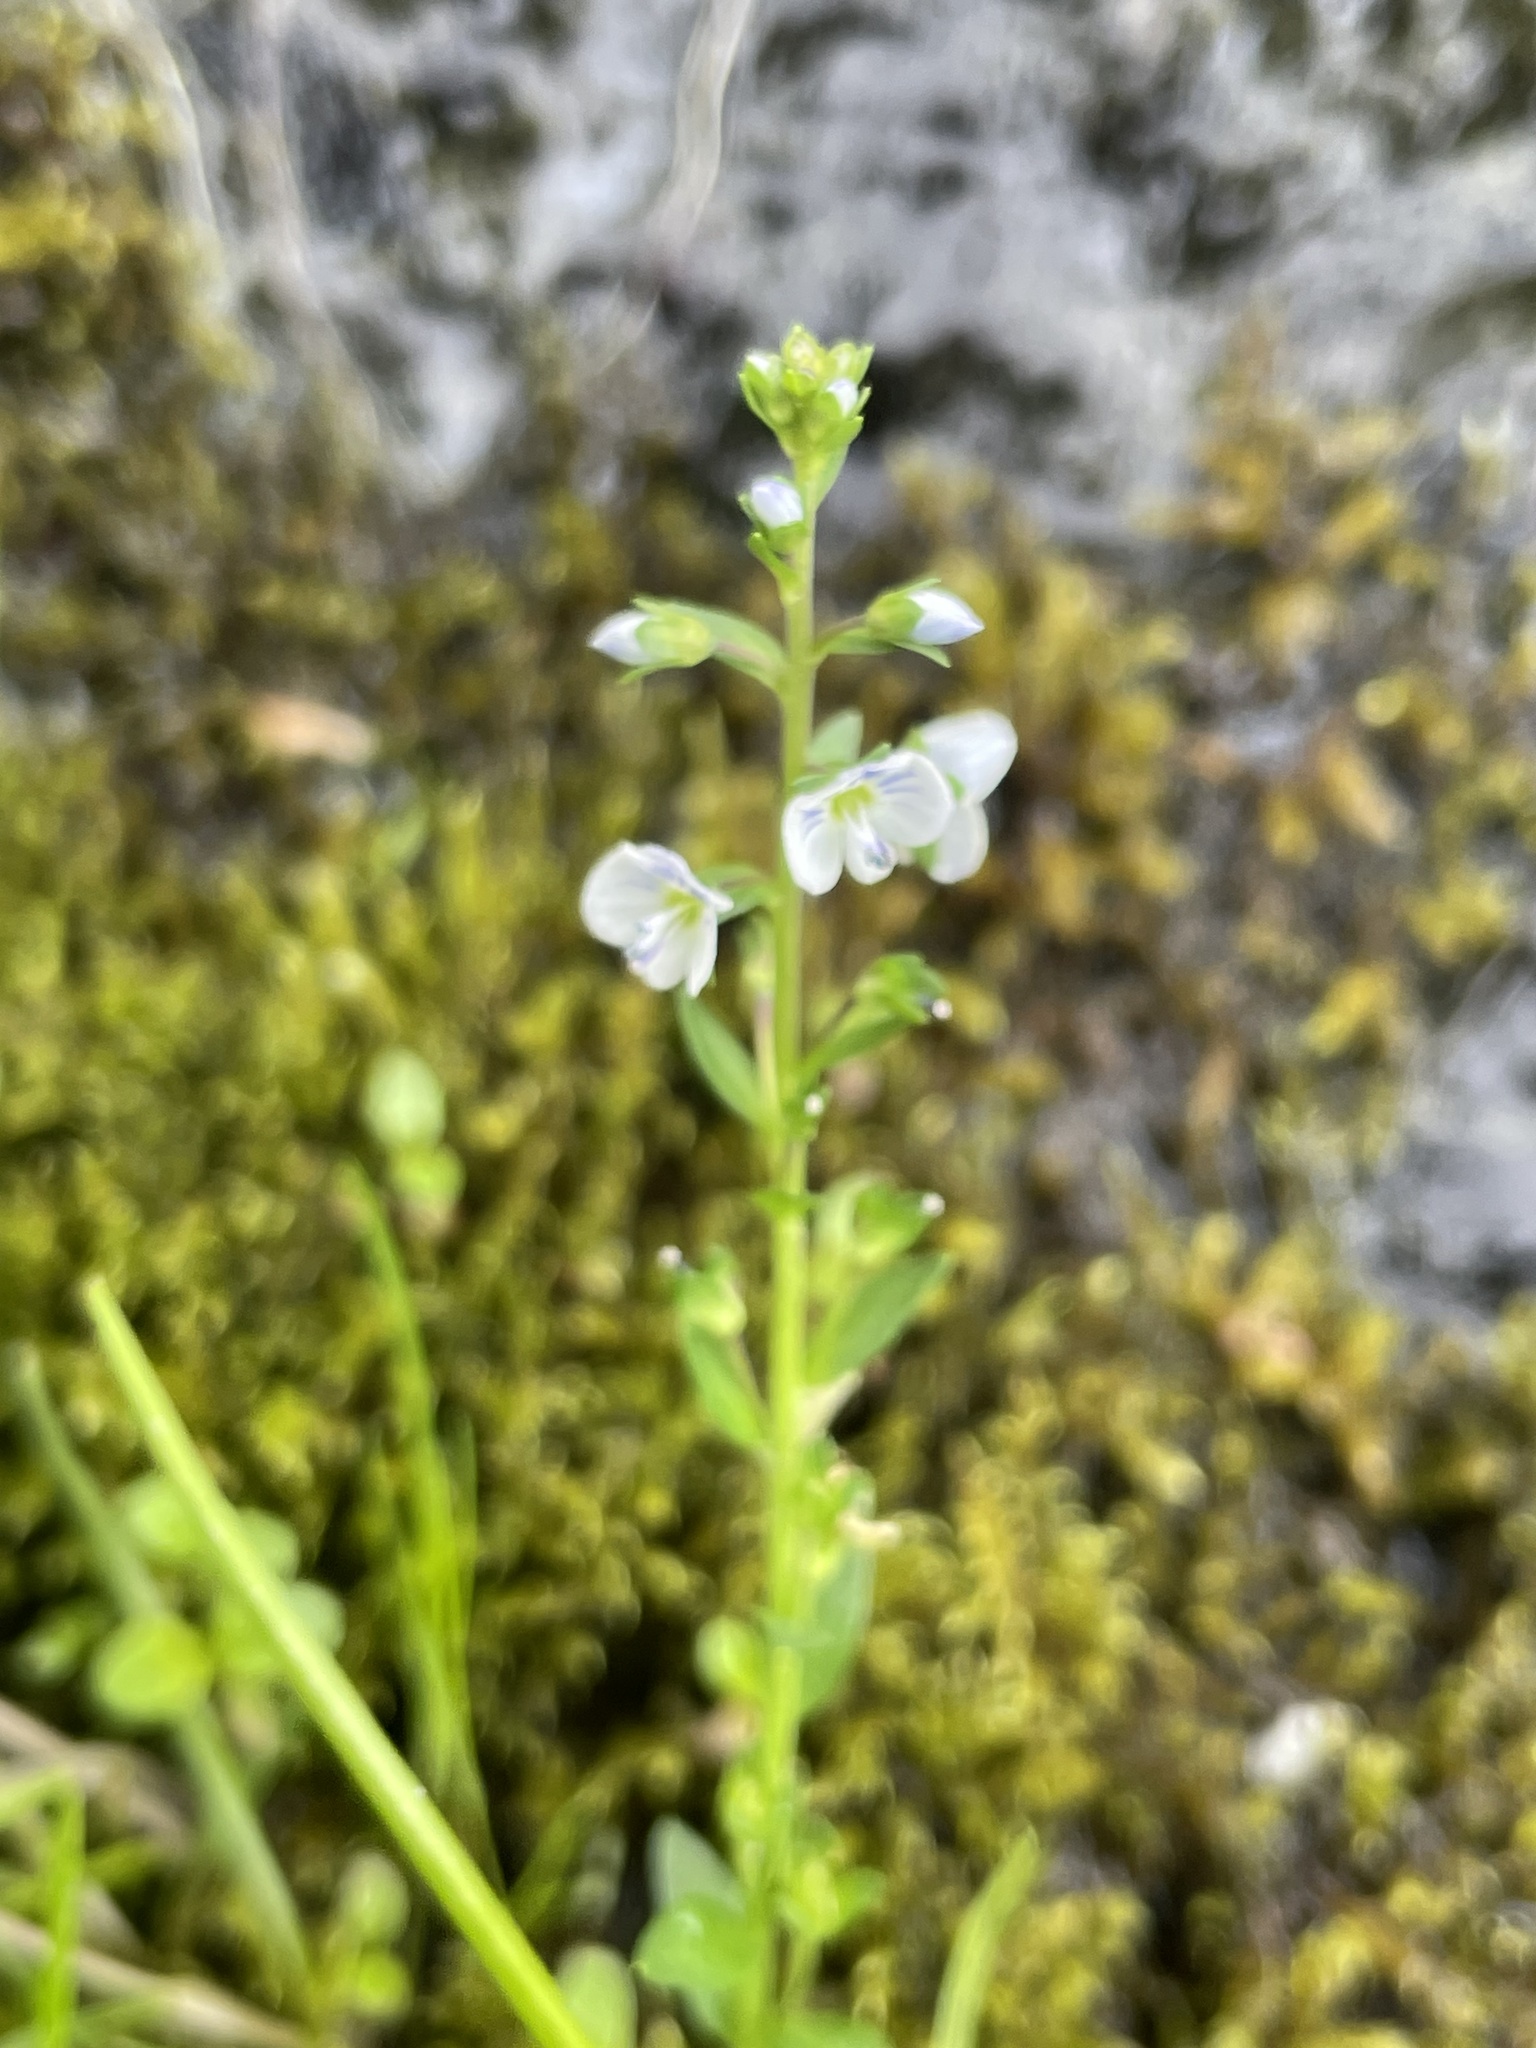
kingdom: Plantae
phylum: Tracheophyta
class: Magnoliopsida
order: Lamiales
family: Plantaginaceae
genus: Veronica
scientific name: Veronica serpyllifolia
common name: Thyme-leaved speedwell
